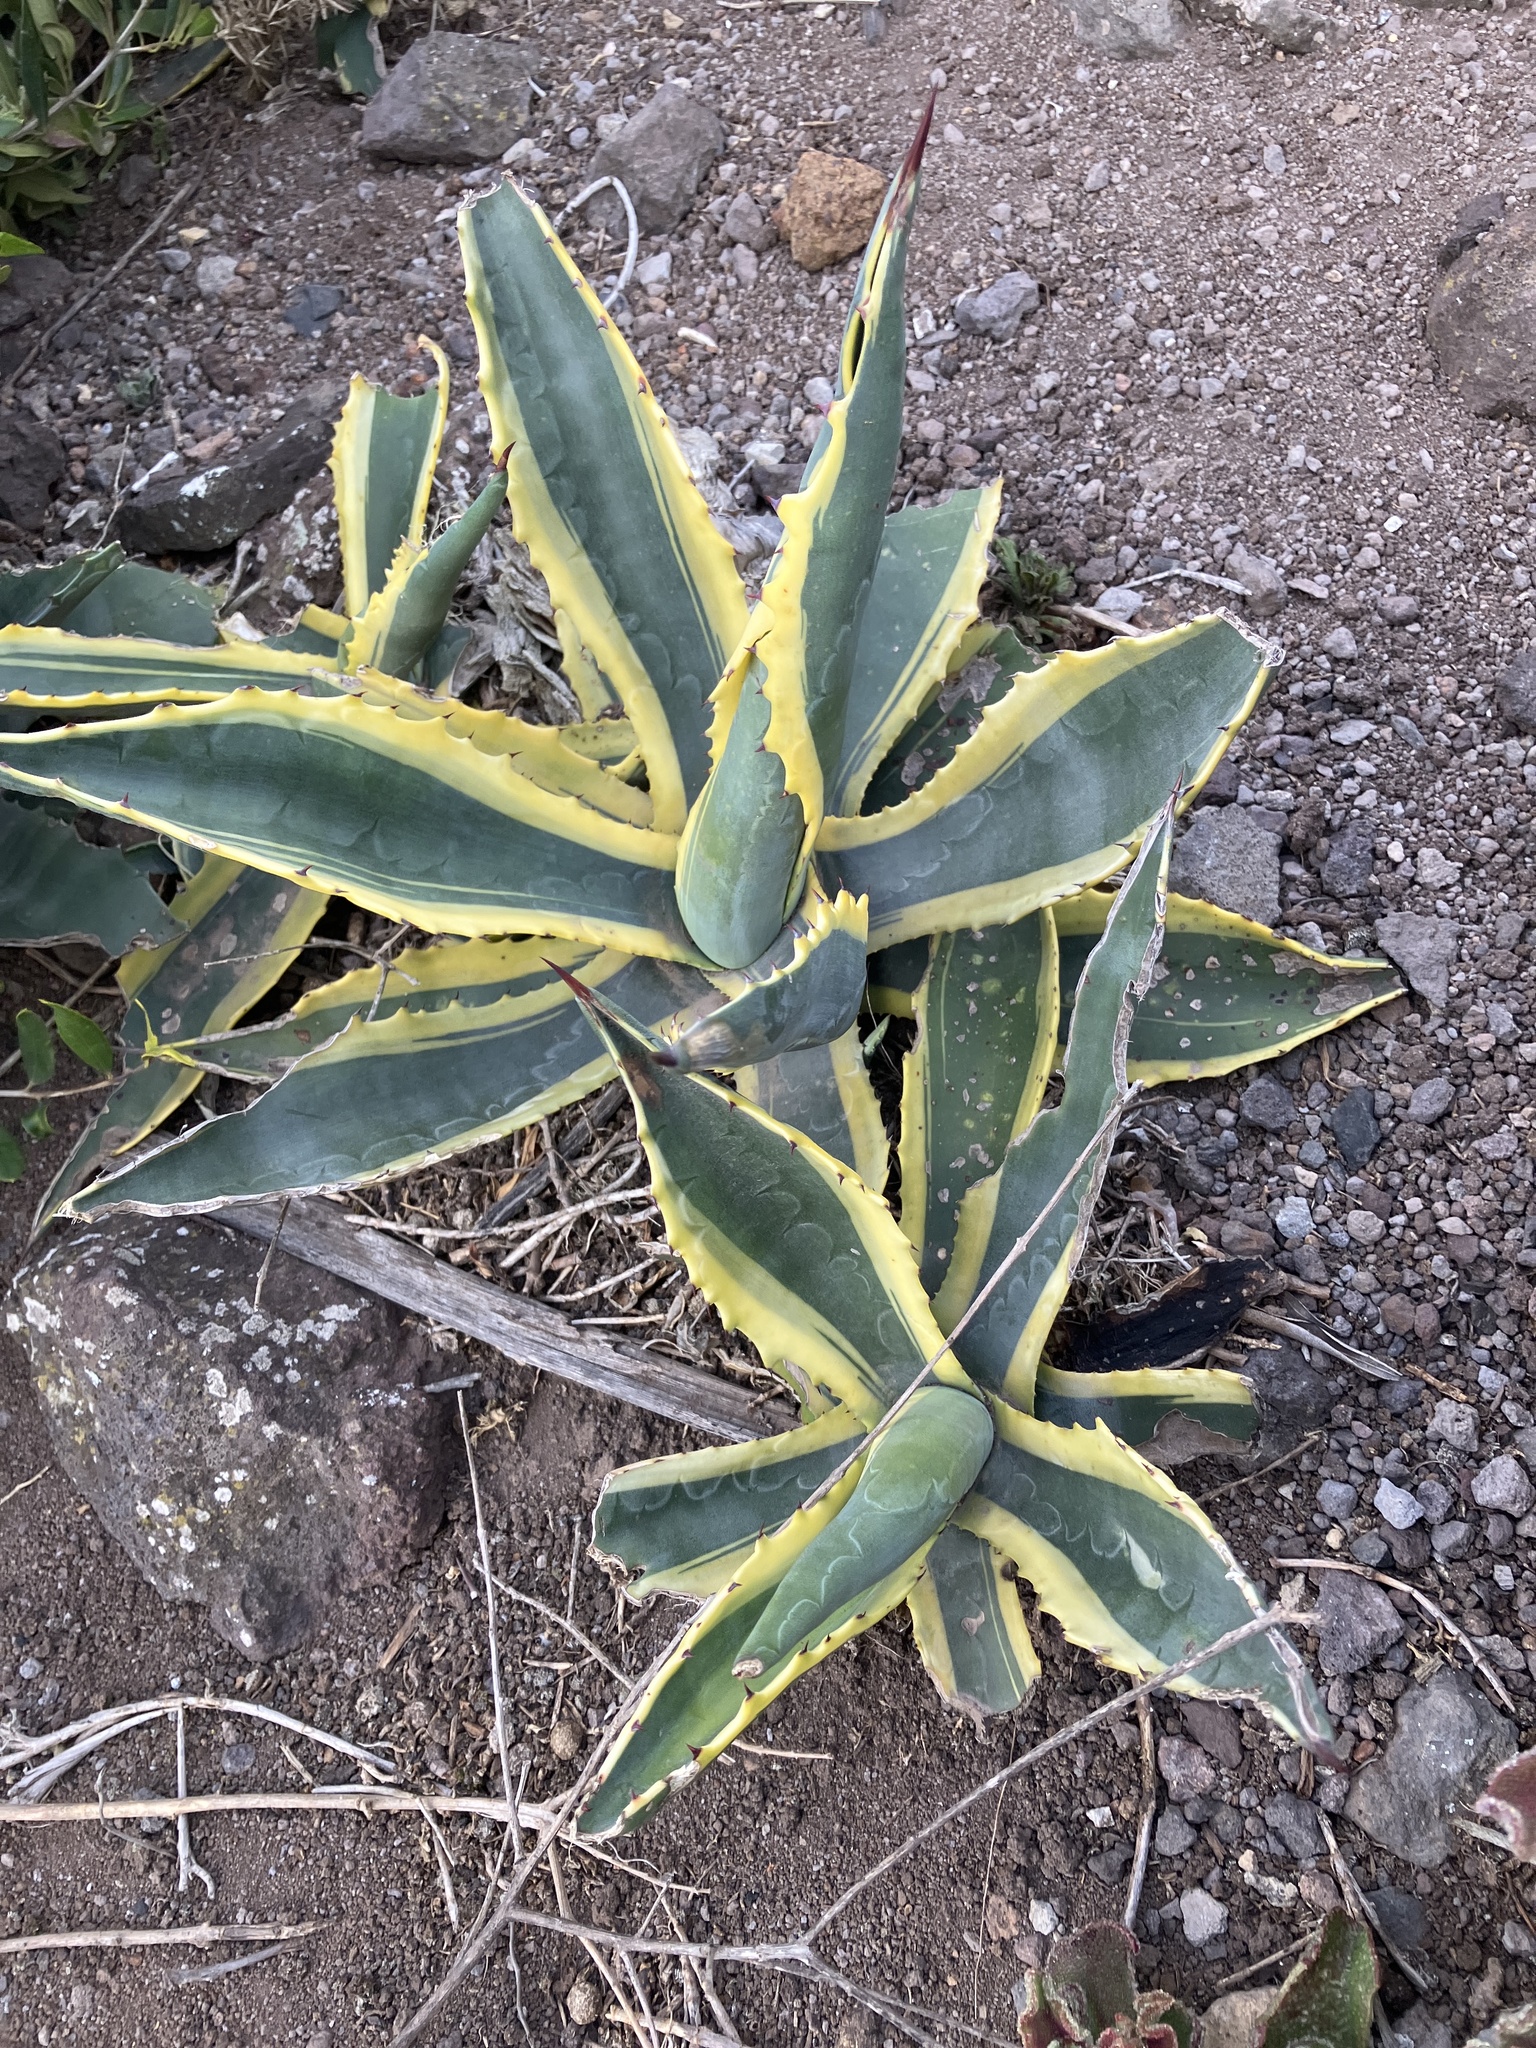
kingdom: Plantae
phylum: Tracheophyta
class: Liliopsida
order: Asparagales
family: Asparagaceae
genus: Agave
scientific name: Agave americana
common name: Centuryplant
